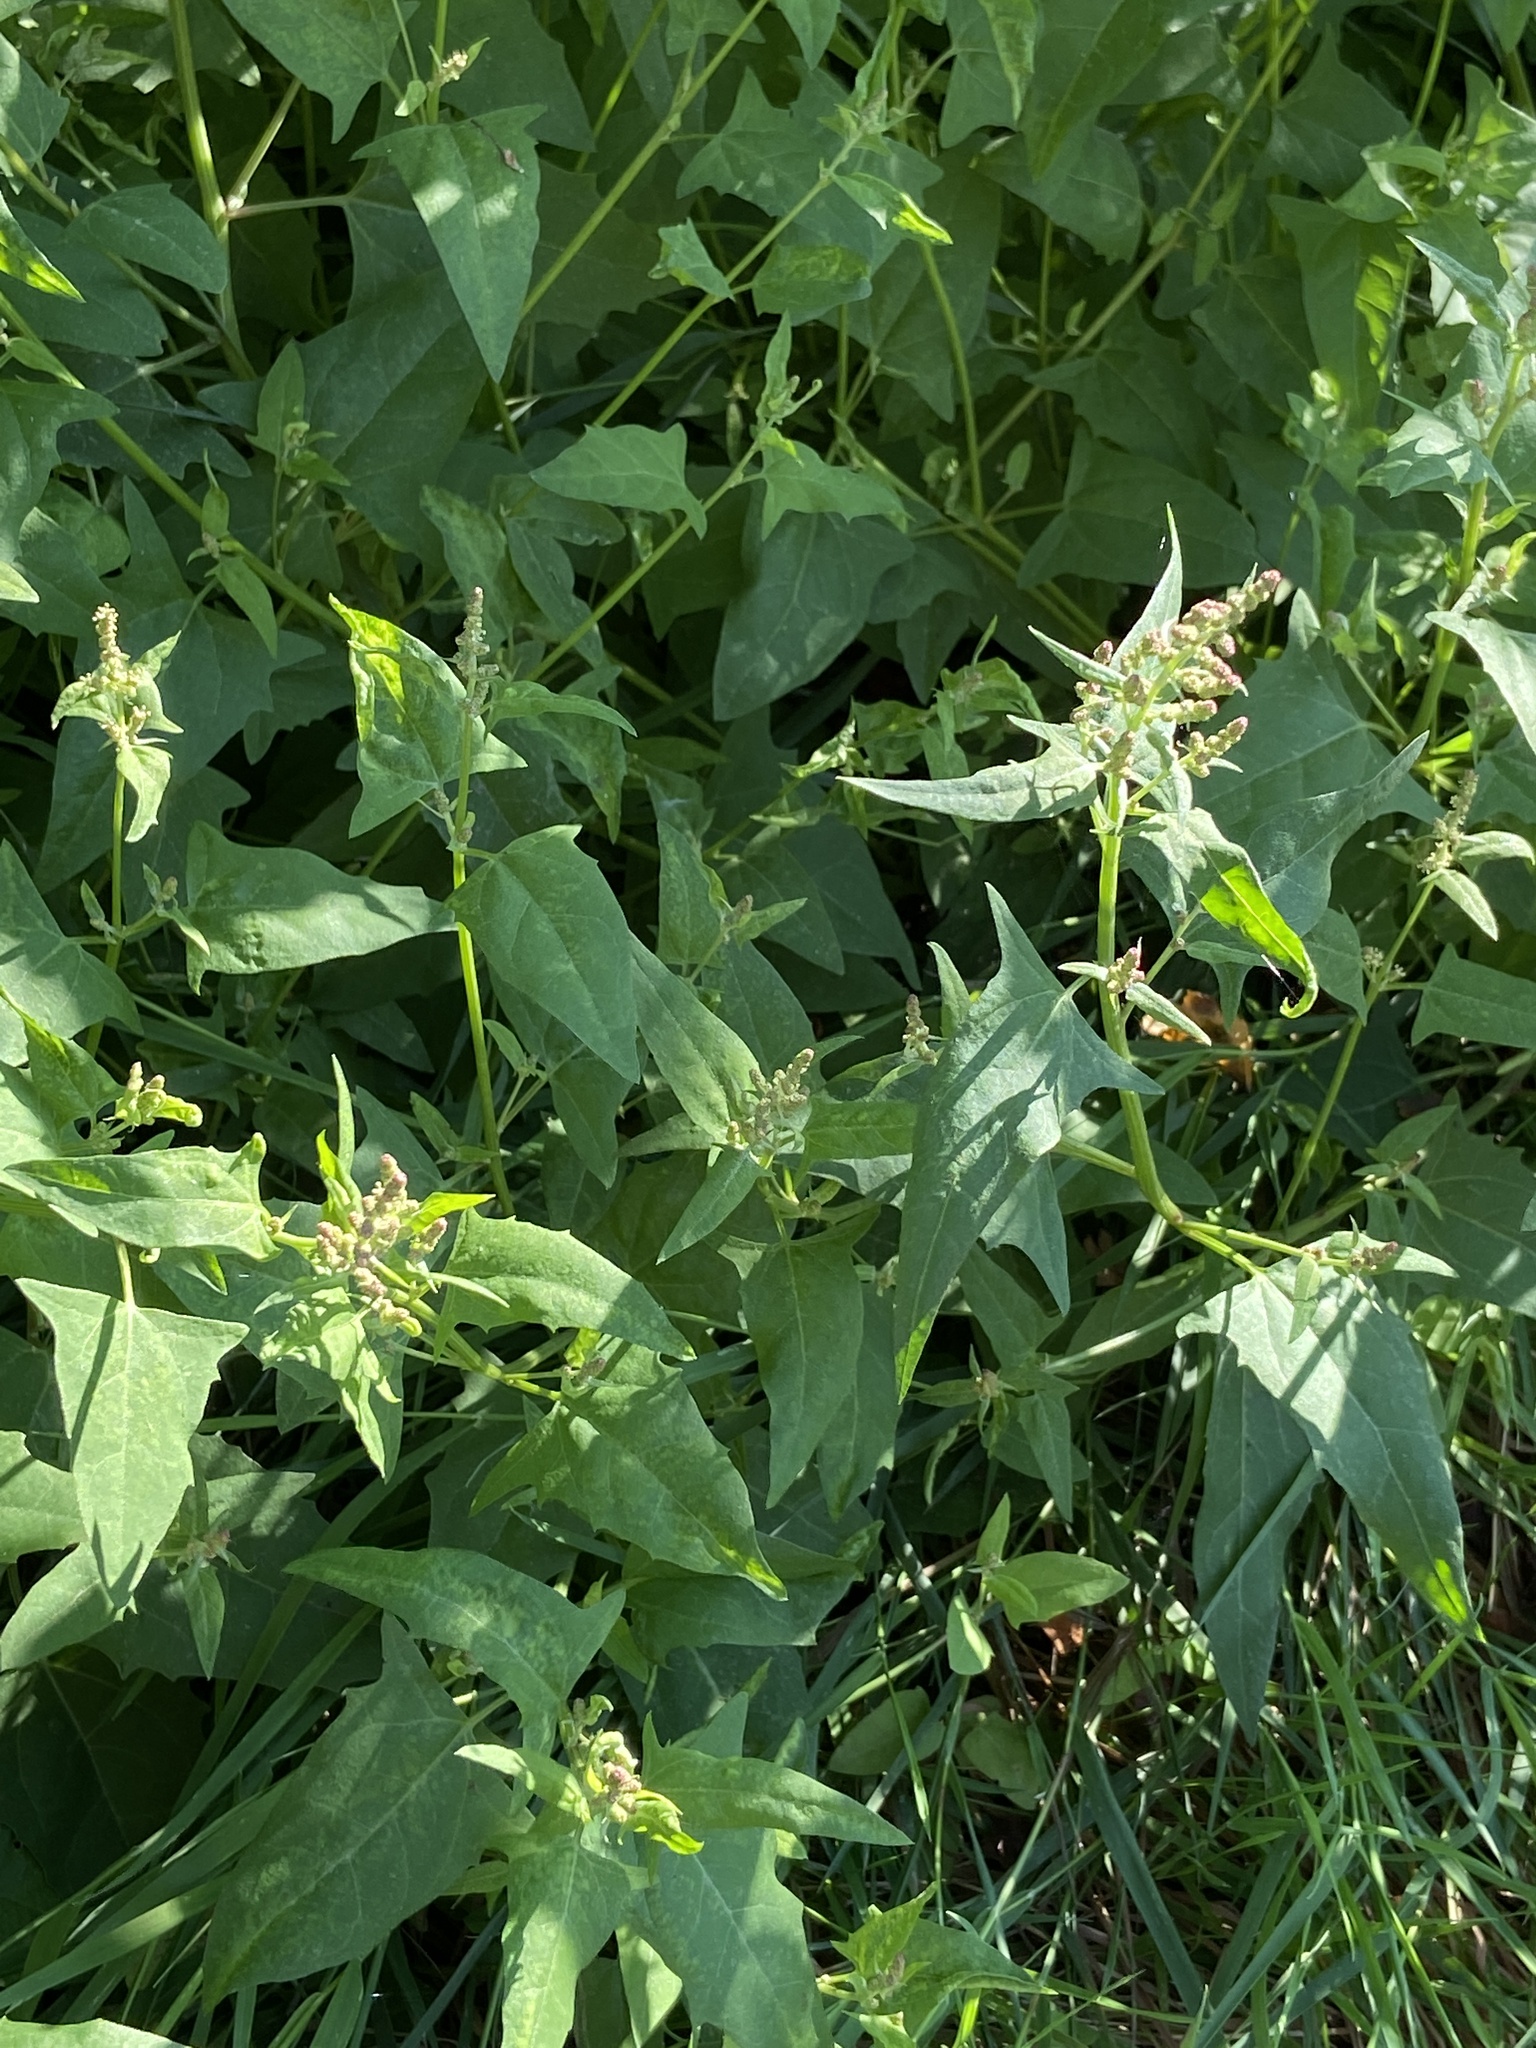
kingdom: Plantae
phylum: Tracheophyta
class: Magnoliopsida
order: Caryophyllales
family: Amaranthaceae
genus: Atriplex
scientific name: Atriplex prostrata
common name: Spear-leaved orache
